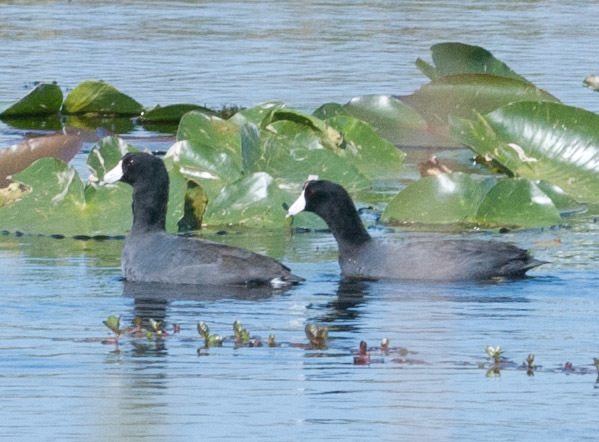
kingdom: Animalia
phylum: Chordata
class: Aves
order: Gruiformes
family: Rallidae
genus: Fulica
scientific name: Fulica americana
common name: American coot
